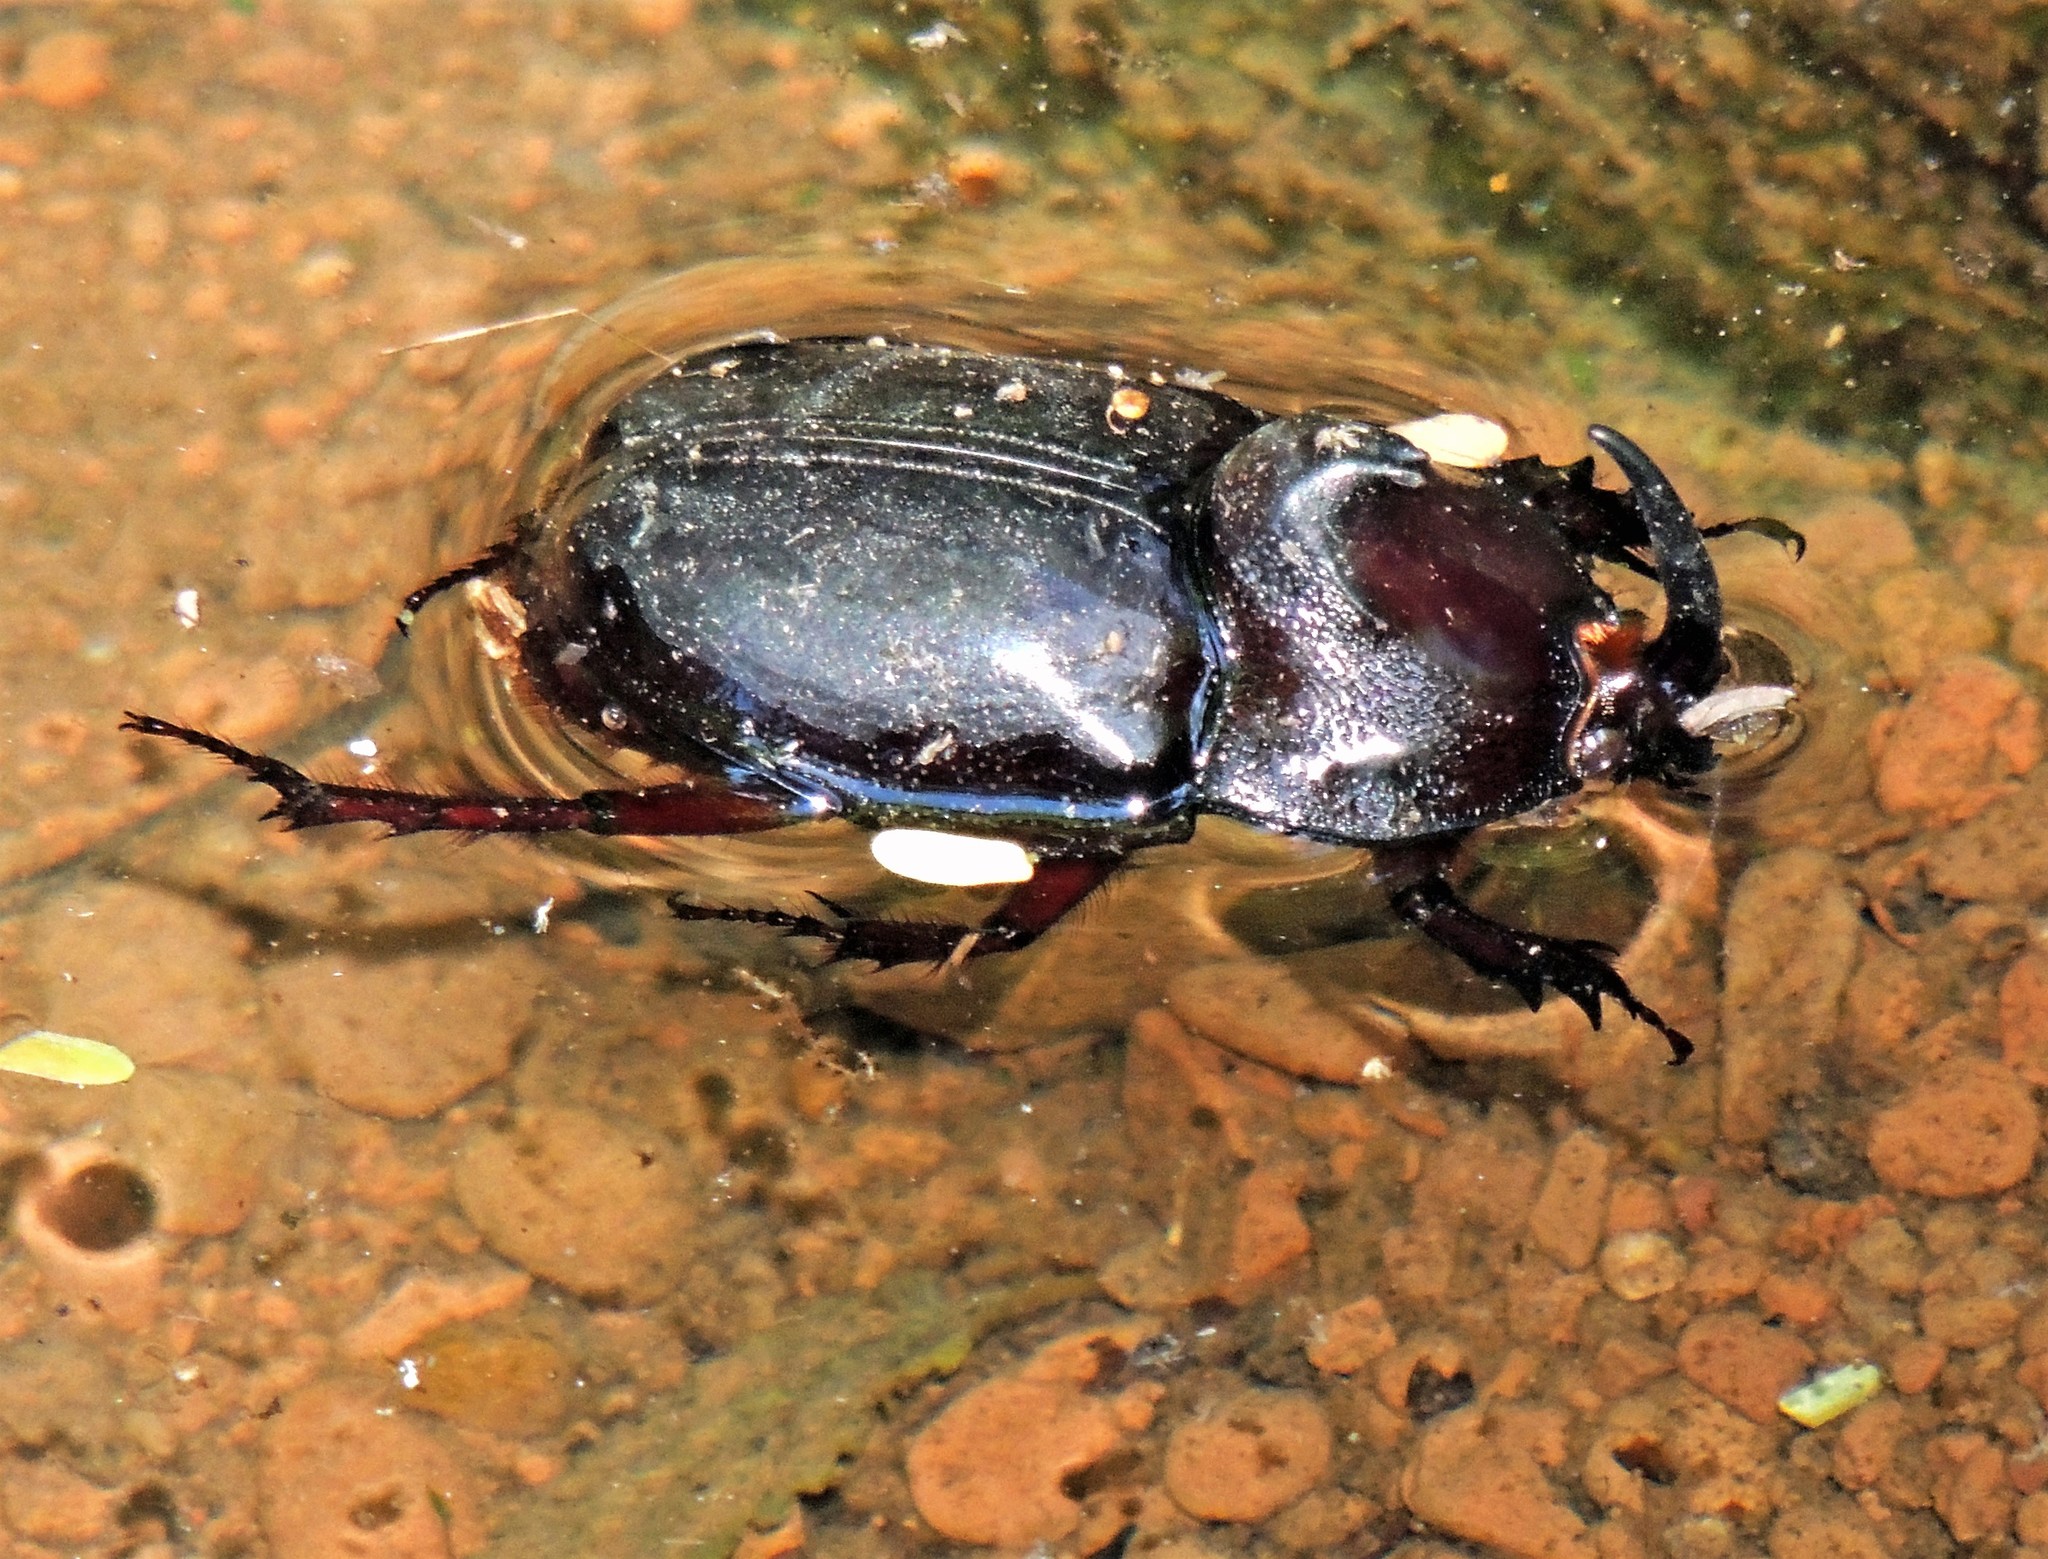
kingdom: Animalia
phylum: Arthropoda
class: Insecta
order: Coleoptera
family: Scarabaeidae
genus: Enema
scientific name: Enema pan
